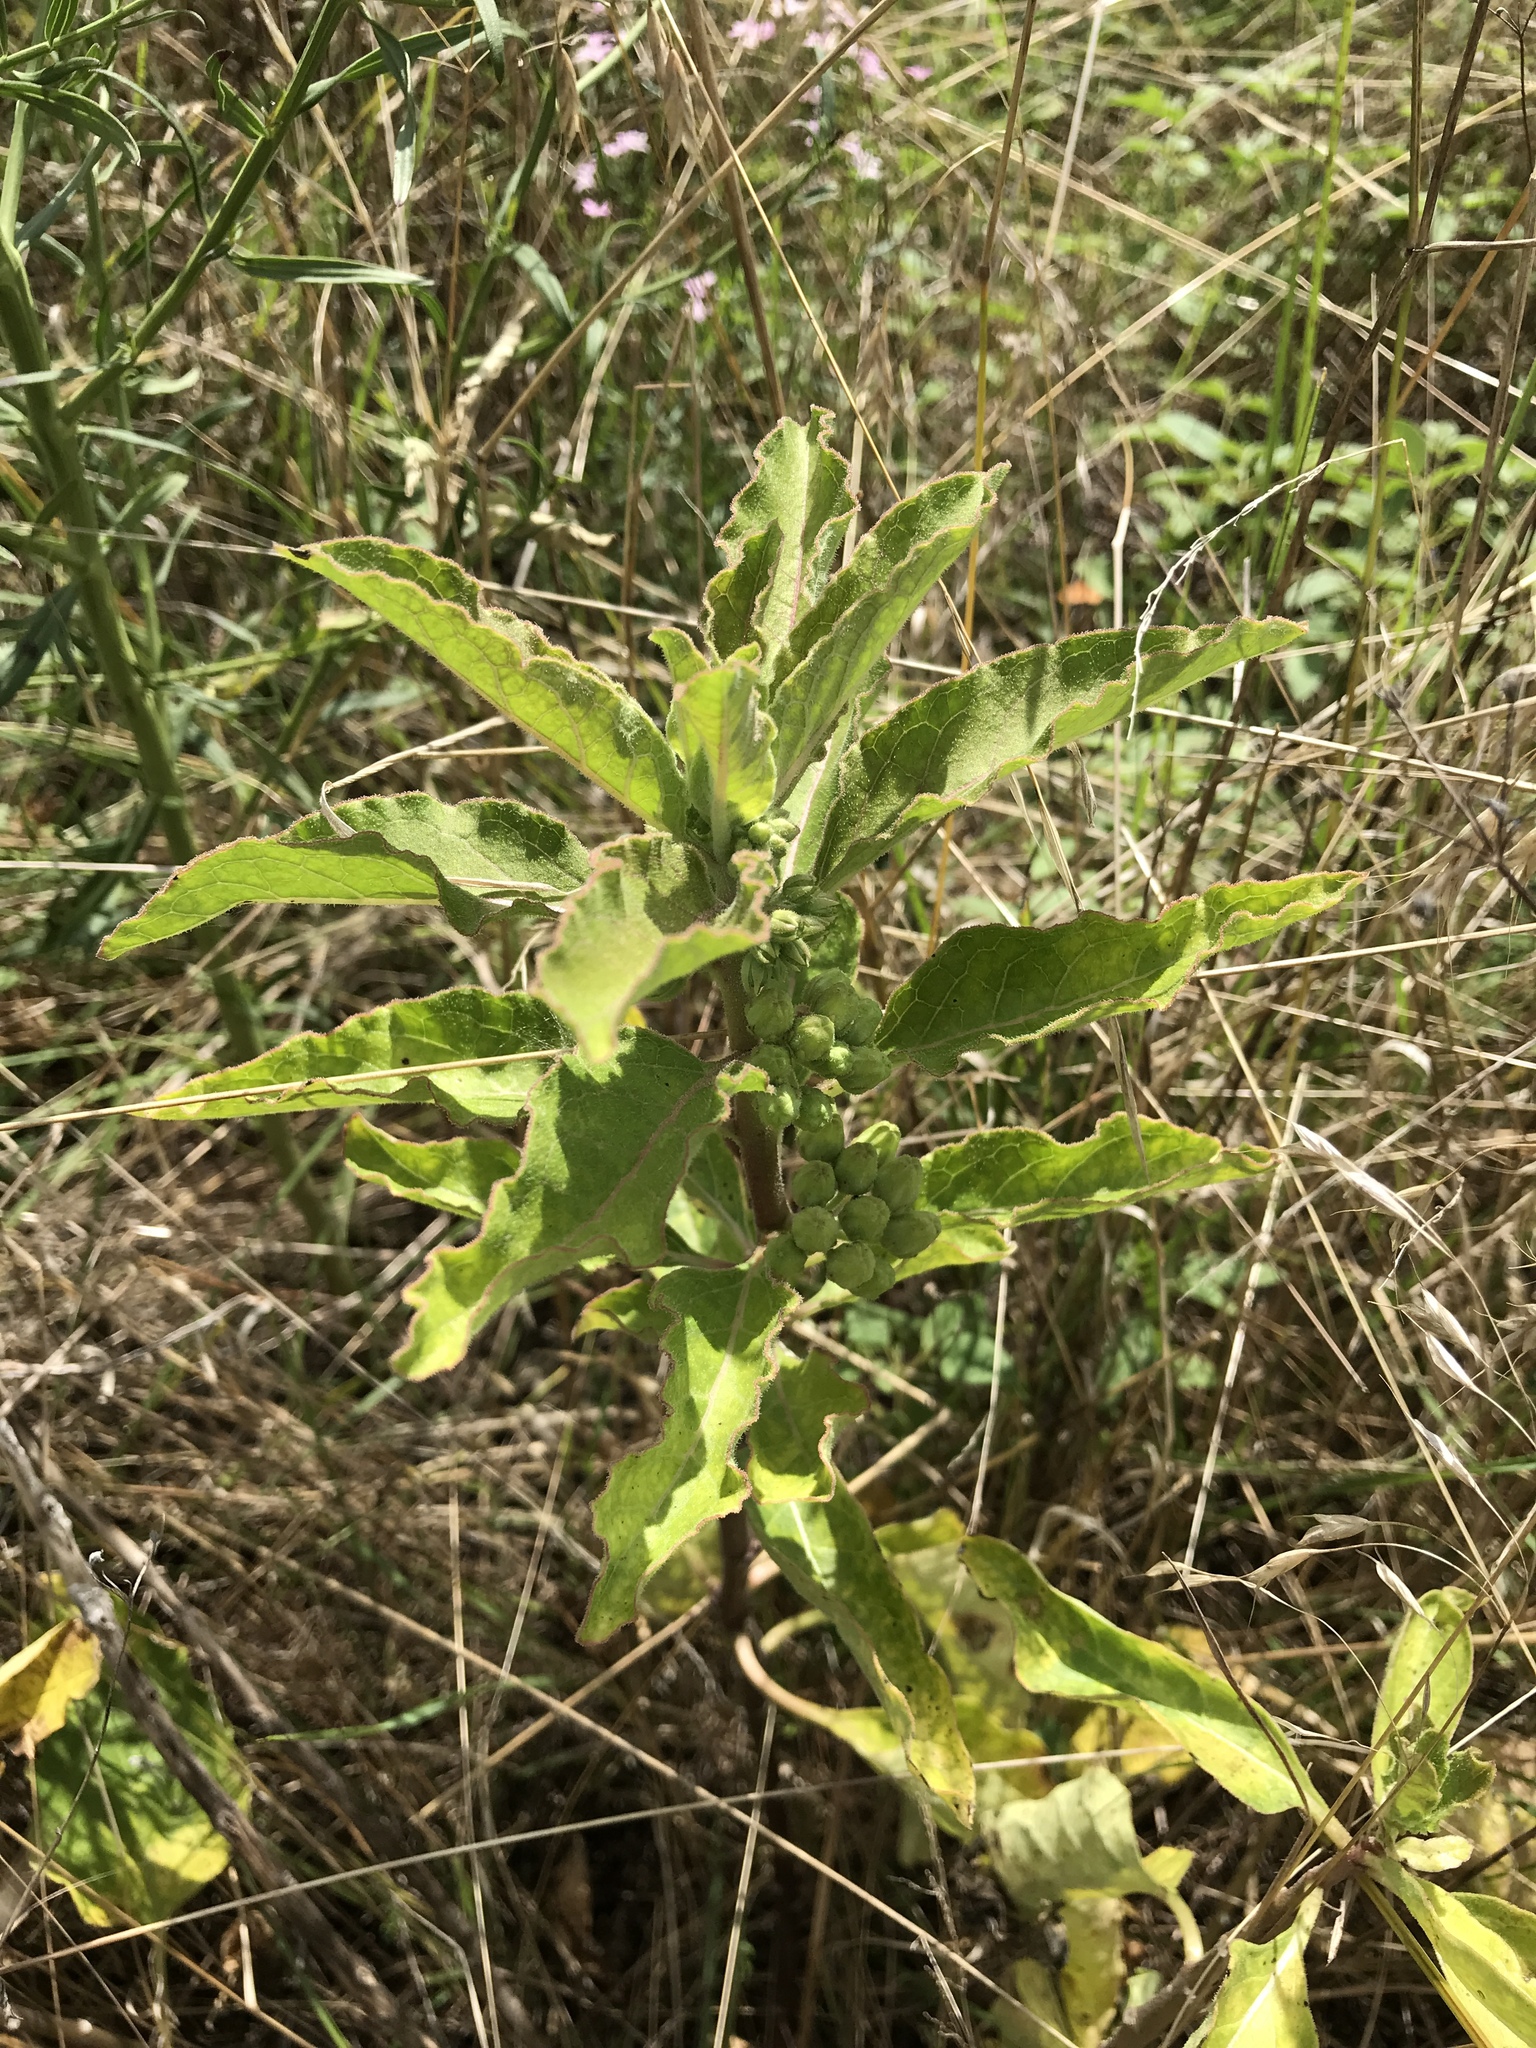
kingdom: Plantae
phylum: Tracheophyta
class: Magnoliopsida
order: Gentianales
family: Apocynaceae
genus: Asclepias
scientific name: Asclepias oenotheroides
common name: Zizotes milkweed
